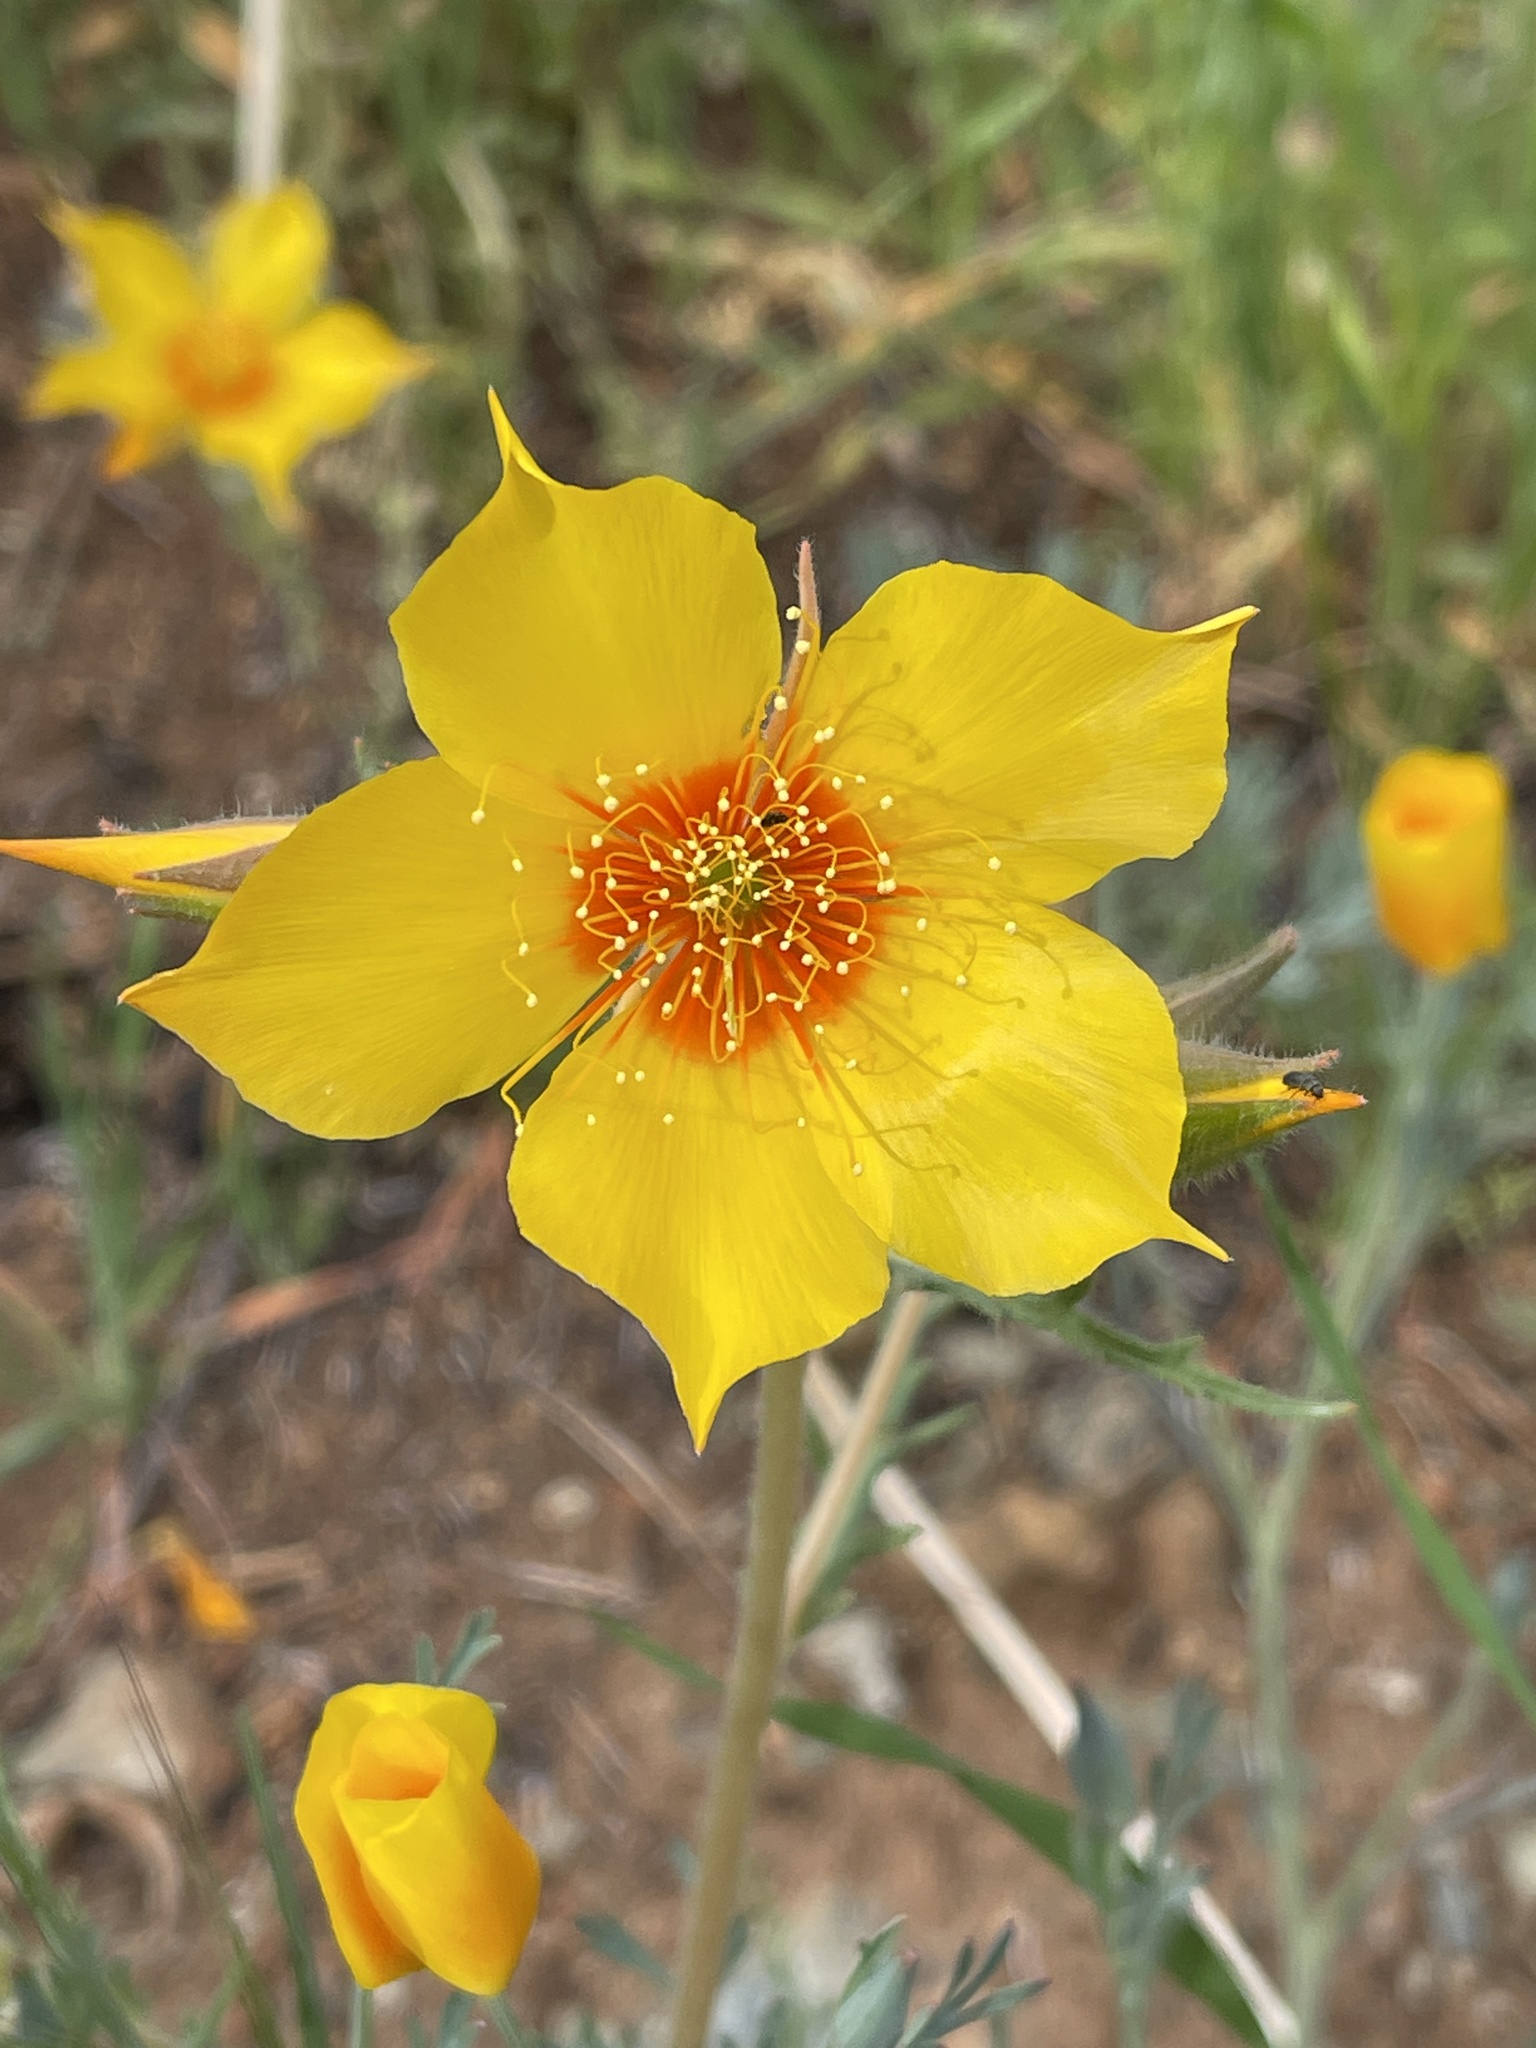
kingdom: Plantae
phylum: Tracheophyta
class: Magnoliopsida
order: Cornales
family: Loasaceae
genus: Mentzelia
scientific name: Mentzelia lindleyi
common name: Golden bartonia
